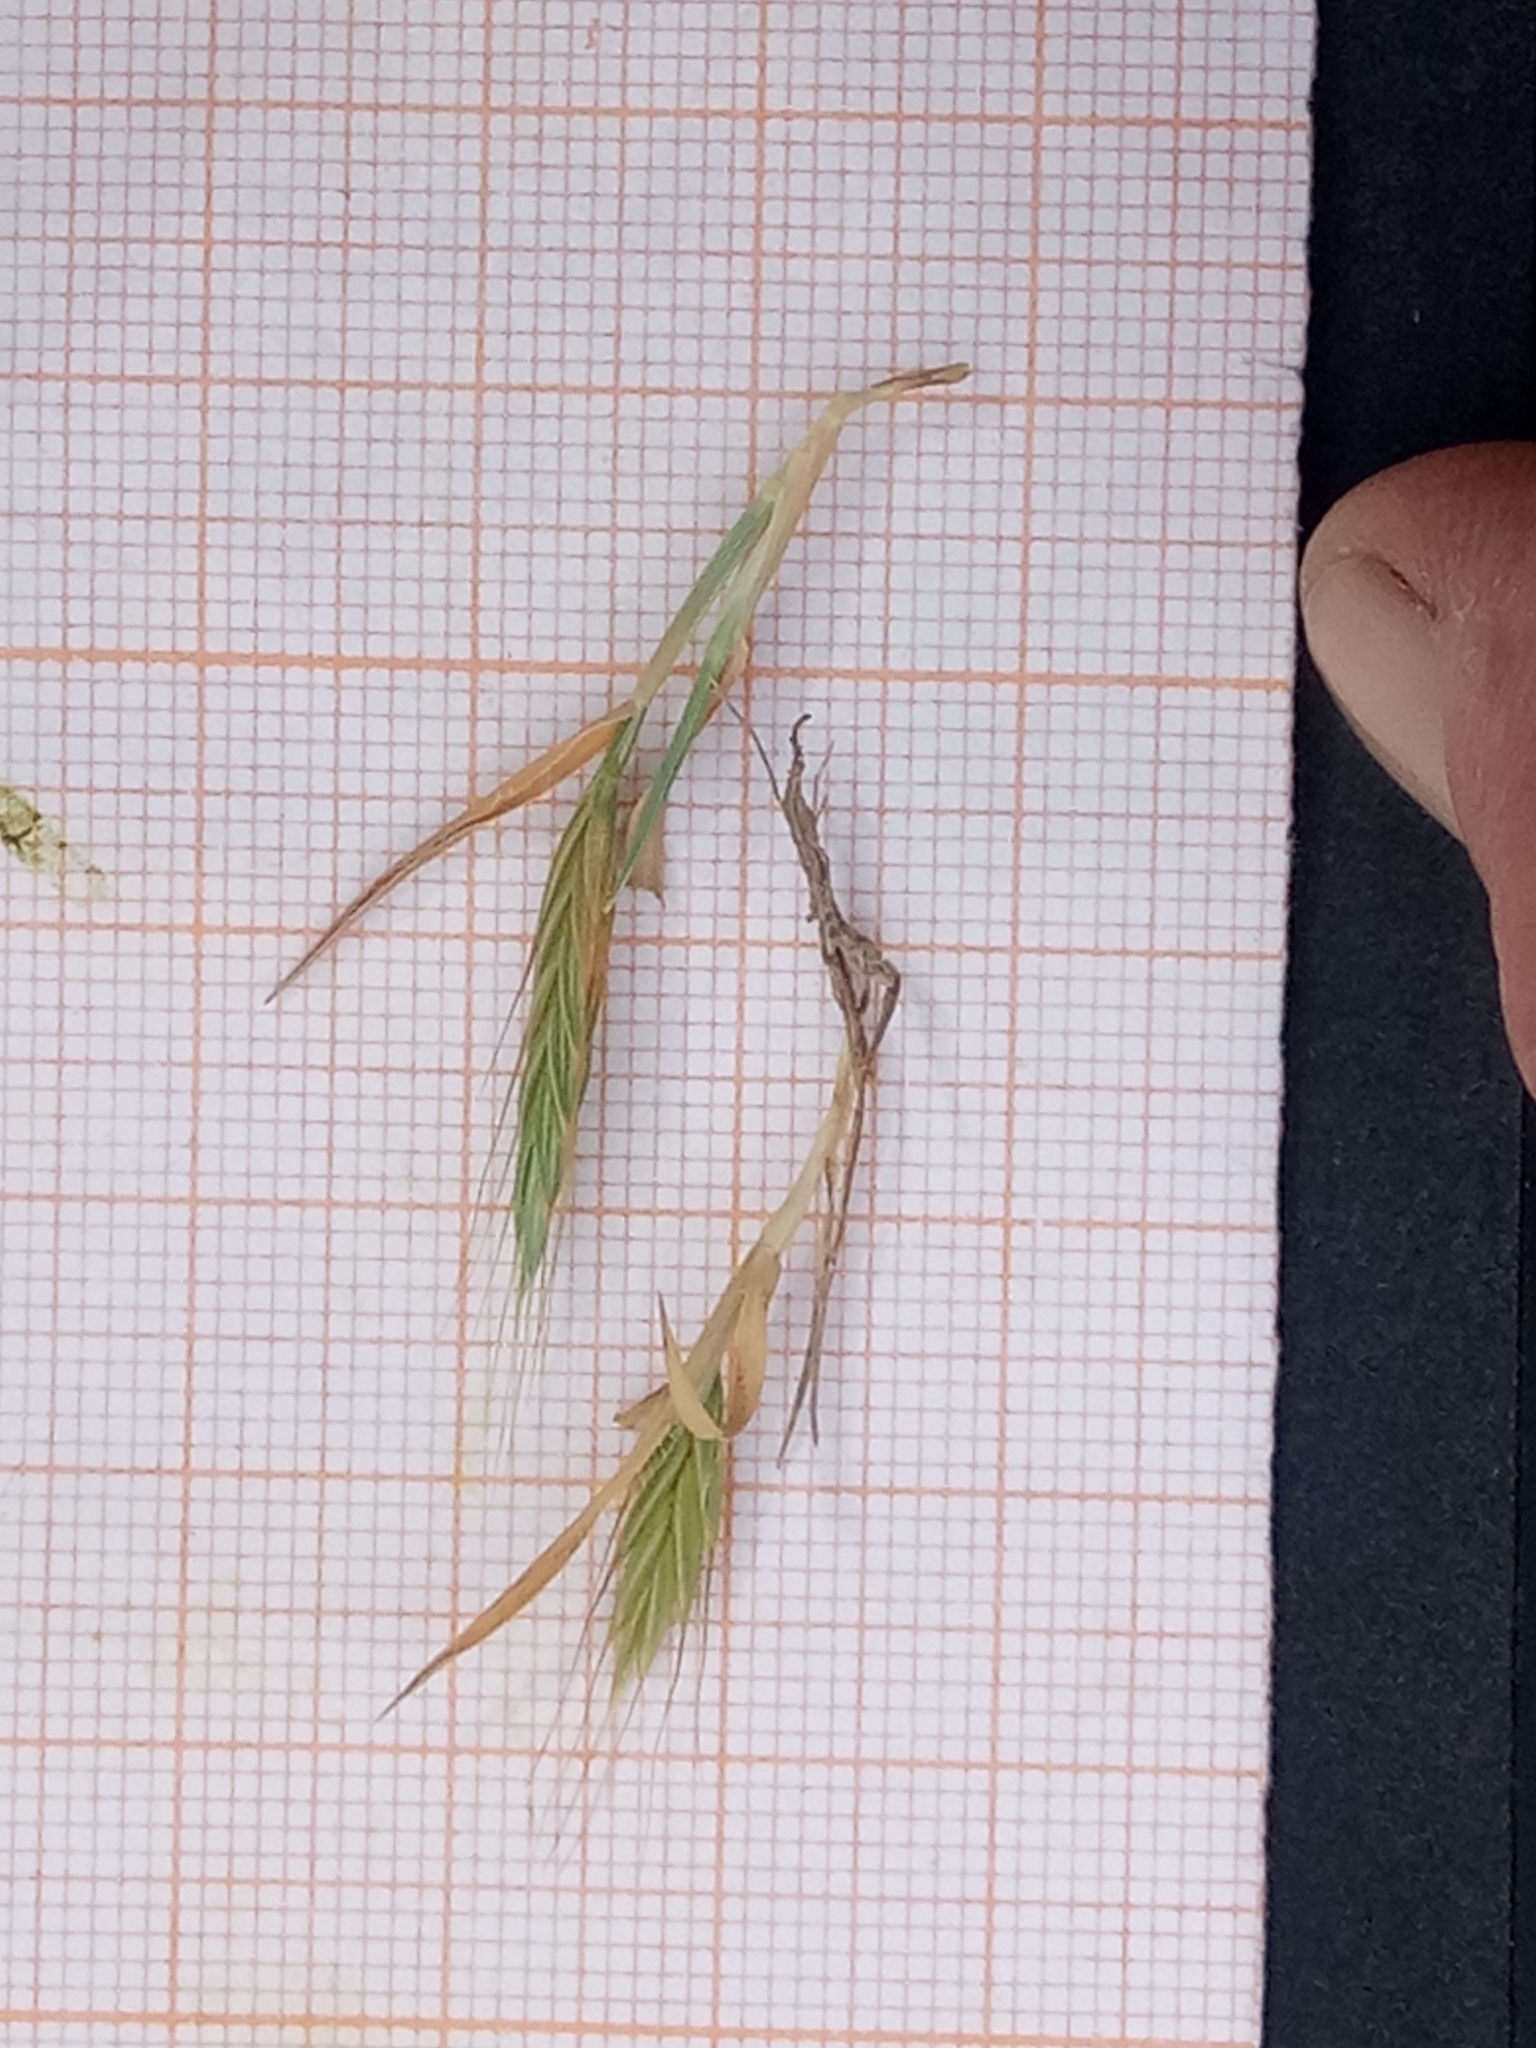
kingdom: Plantae
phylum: Tracheophyta
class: Liliopsida
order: Poales
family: Poaceae
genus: Brachypodium
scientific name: Brachypodium distachyon
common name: Stiff brome
